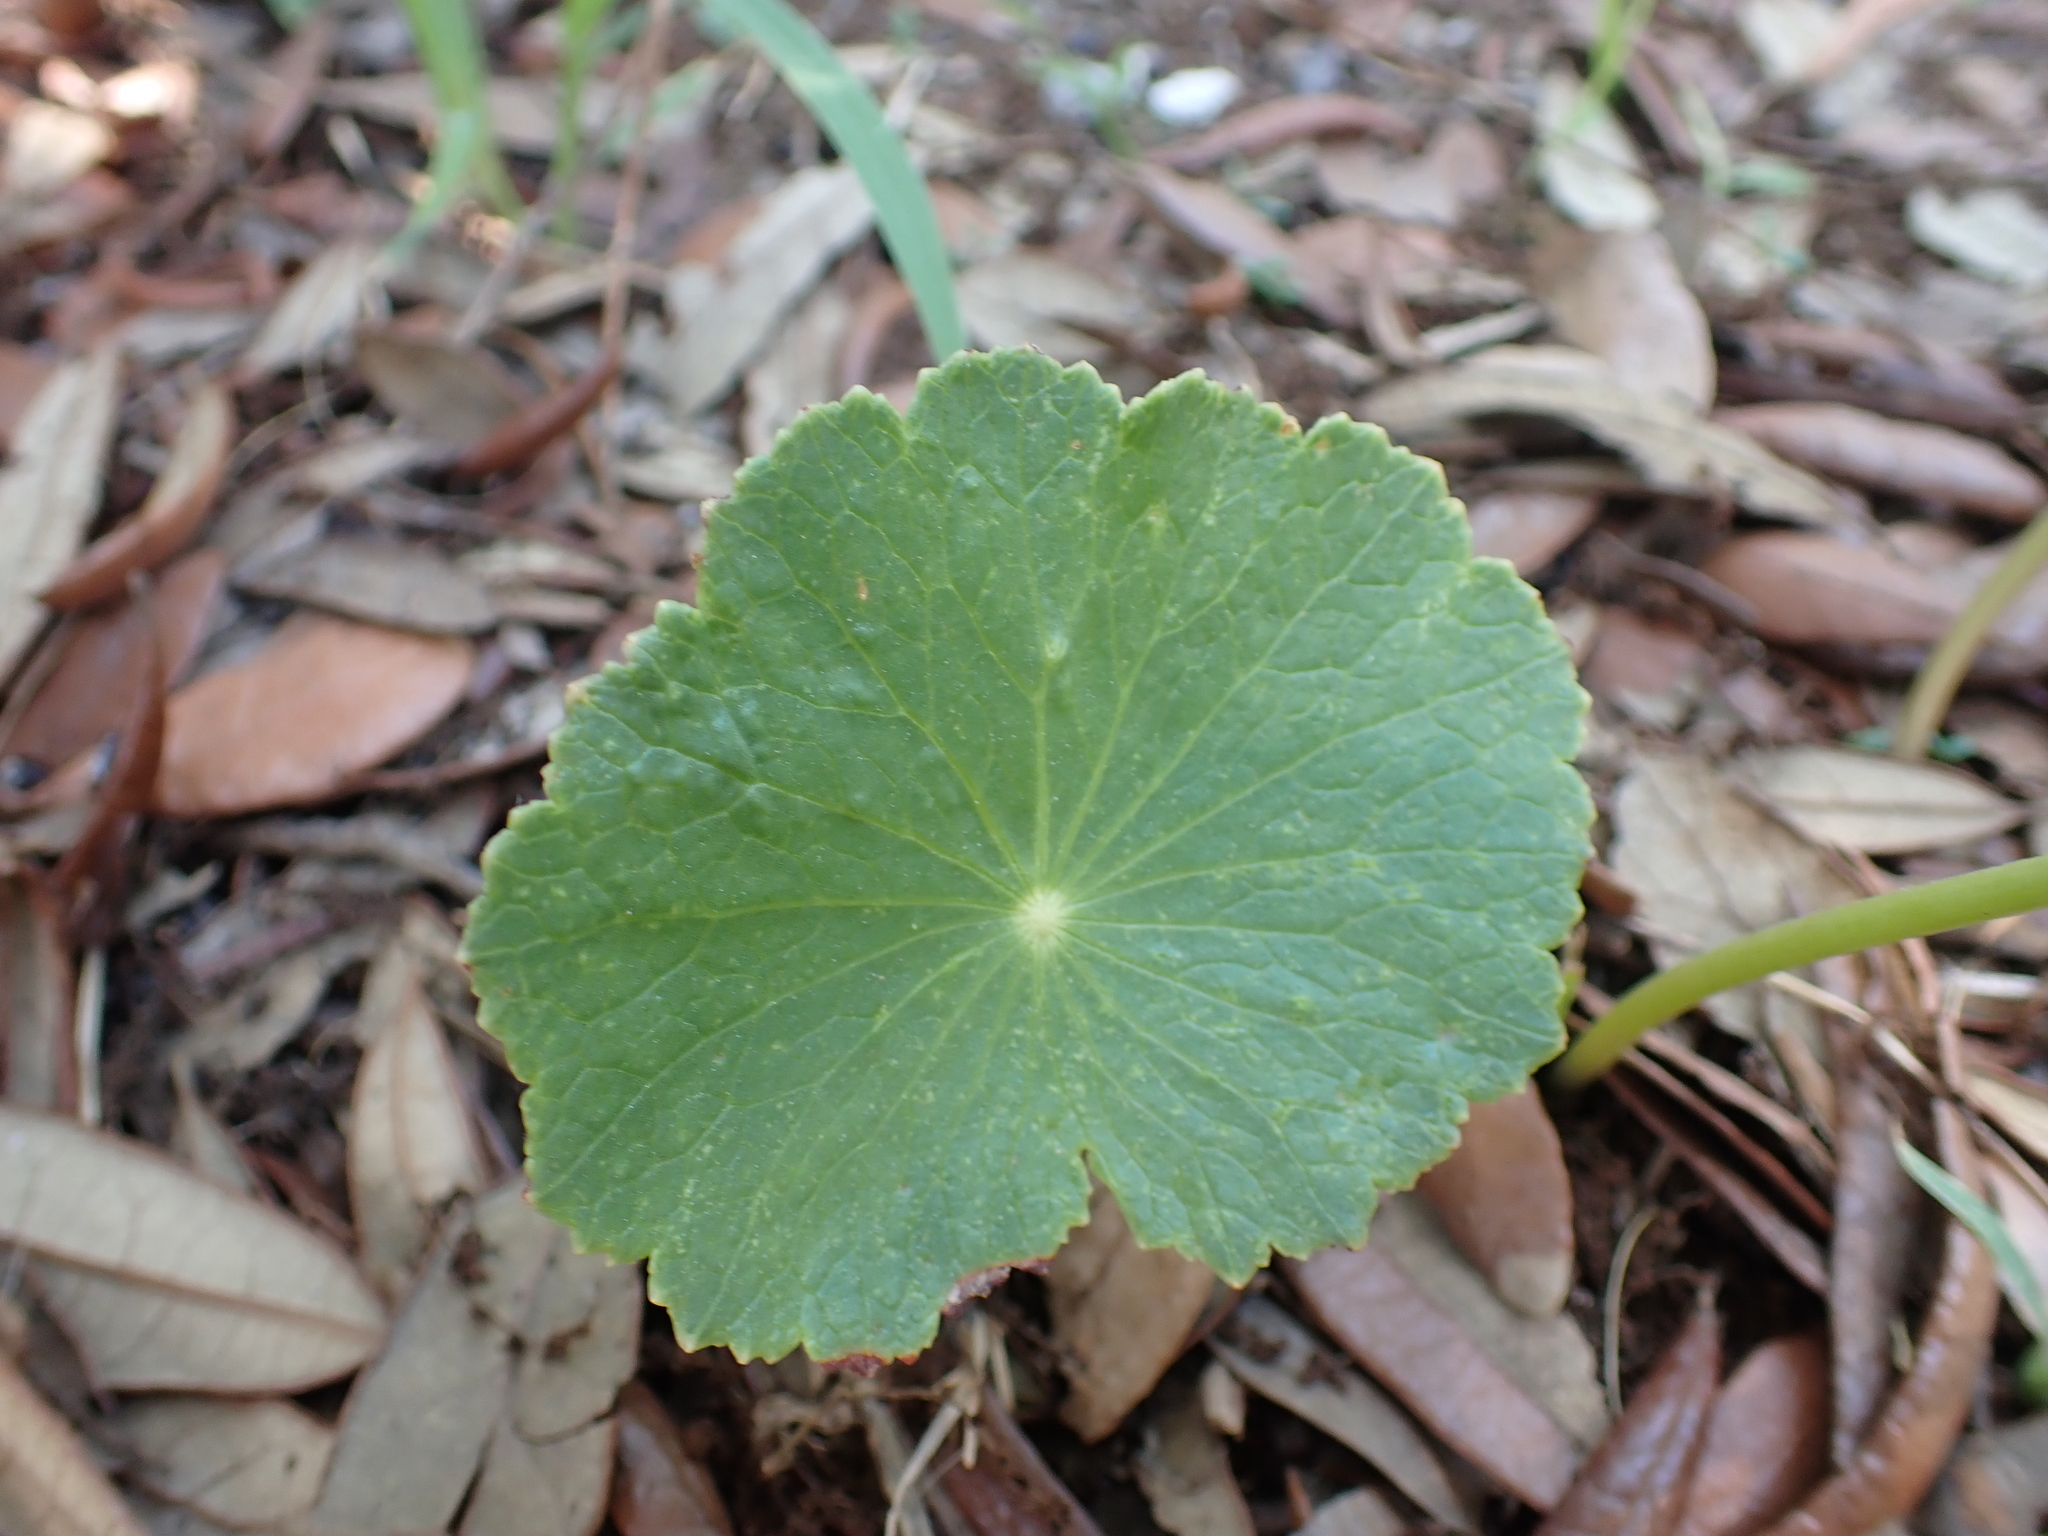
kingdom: Plantae
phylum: Tracheophyta
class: Magnoliopsida
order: Apiales
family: Araliaceae
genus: Hydrocotyle
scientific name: Hydrocotyle bonariensis
